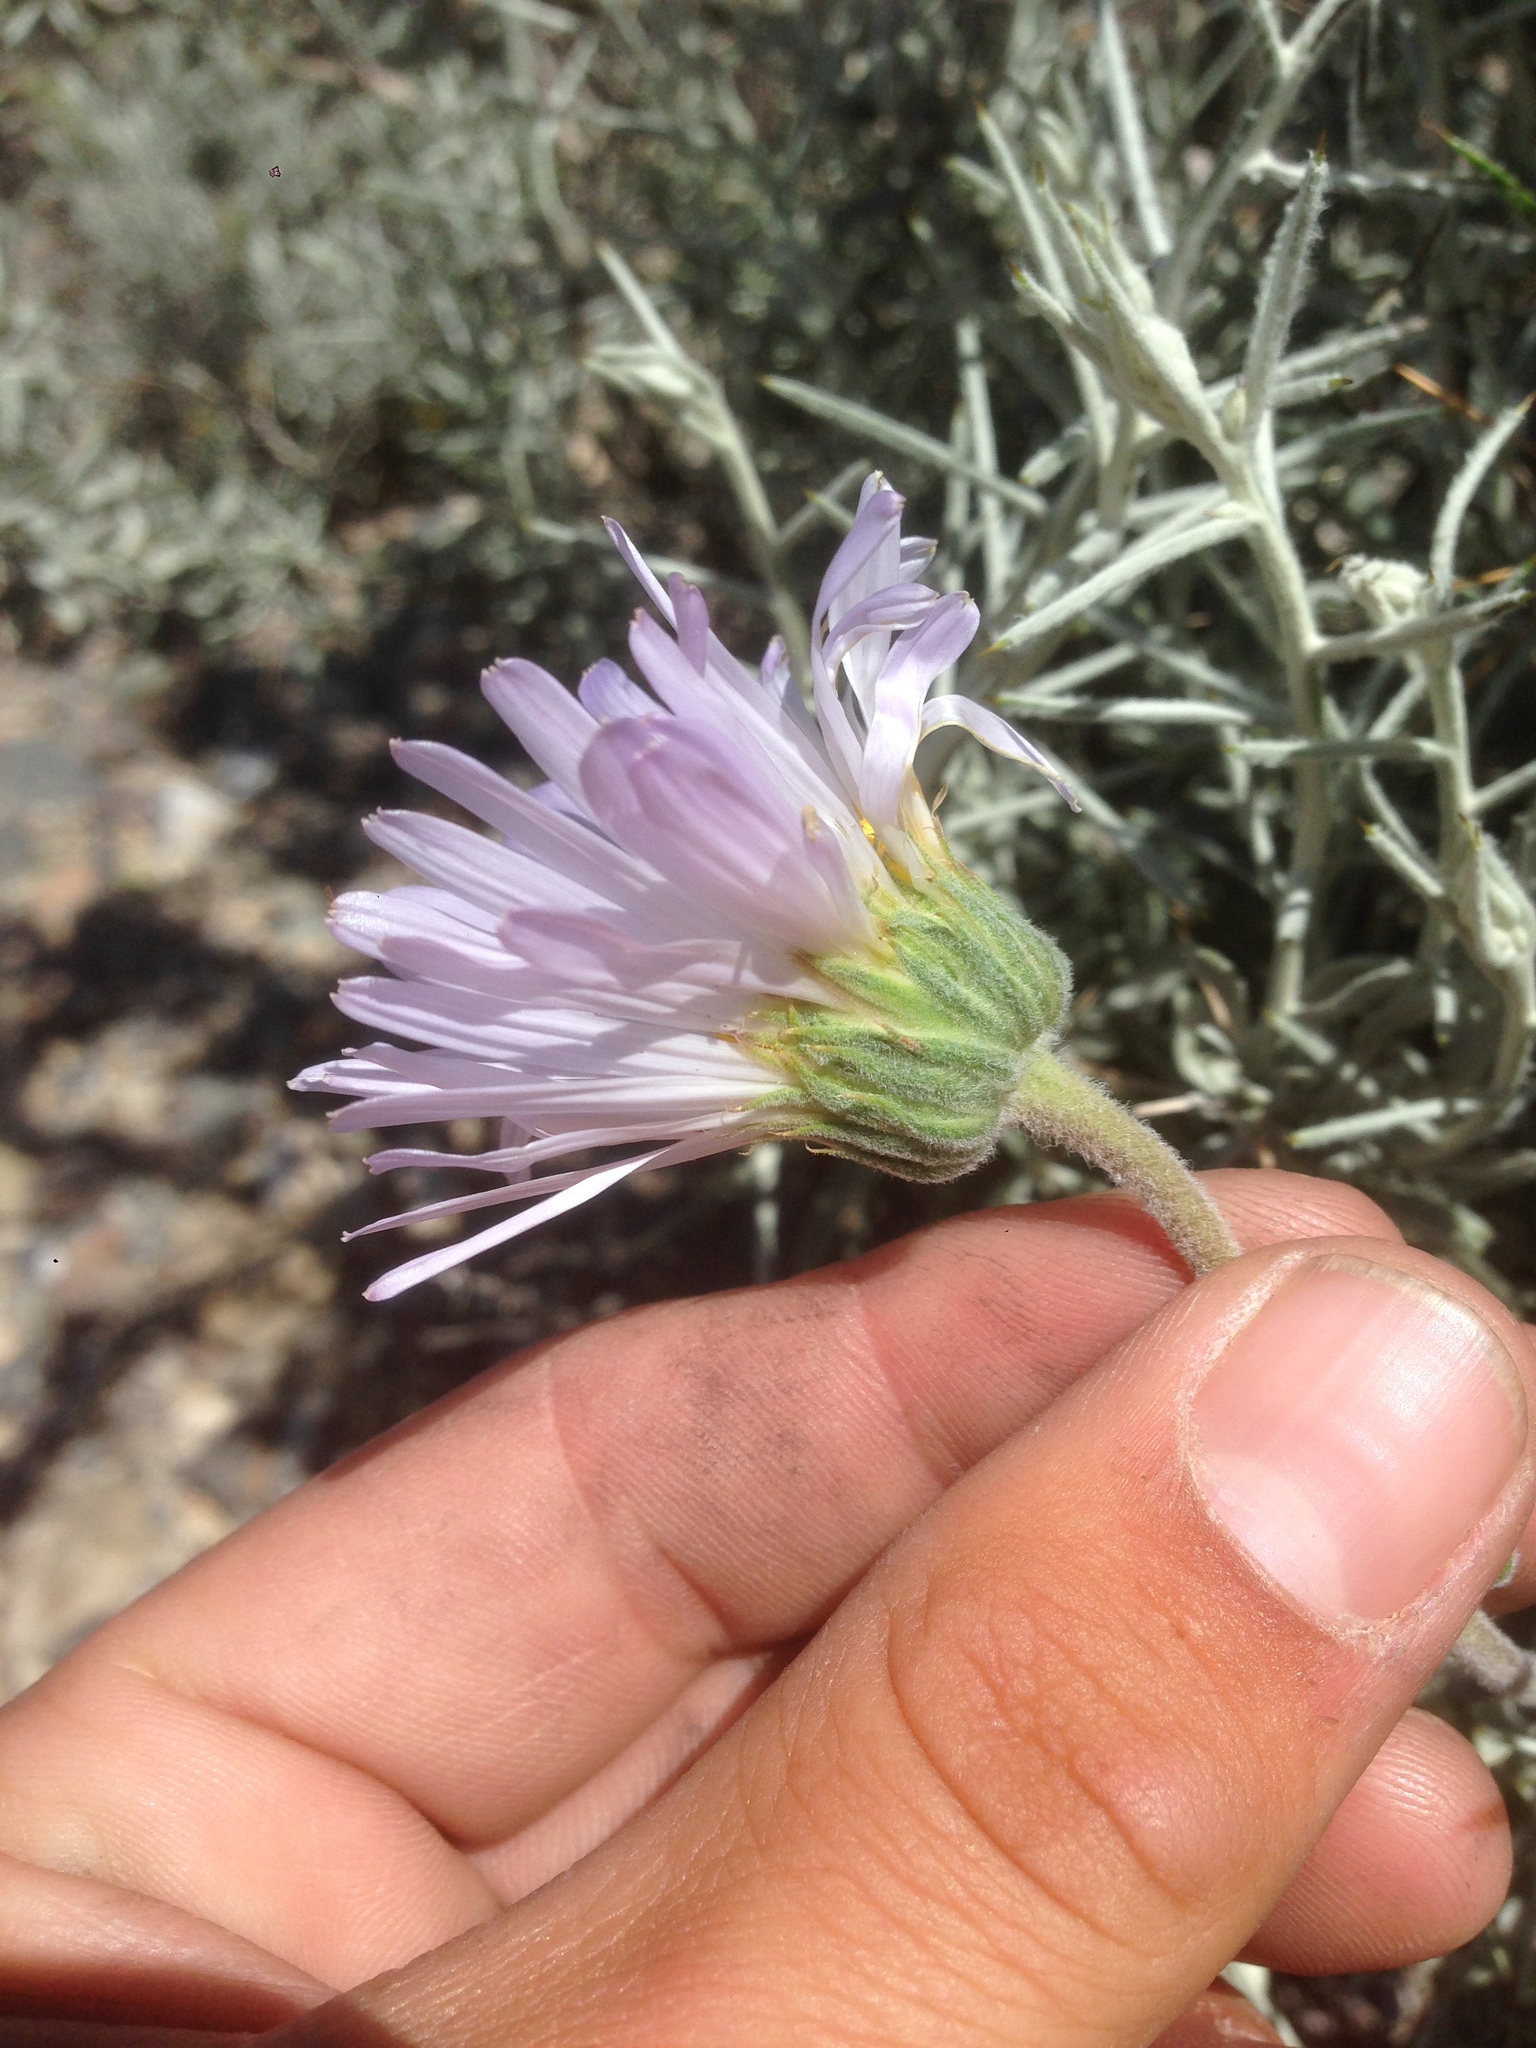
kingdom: Plantae
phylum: Tracheophyta
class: Magnoliopsida
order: Asterales
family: Asteraceae
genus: Xylorhiza
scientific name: Xylorhiza tortifolia
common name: Hurt-leaf woody-aster
